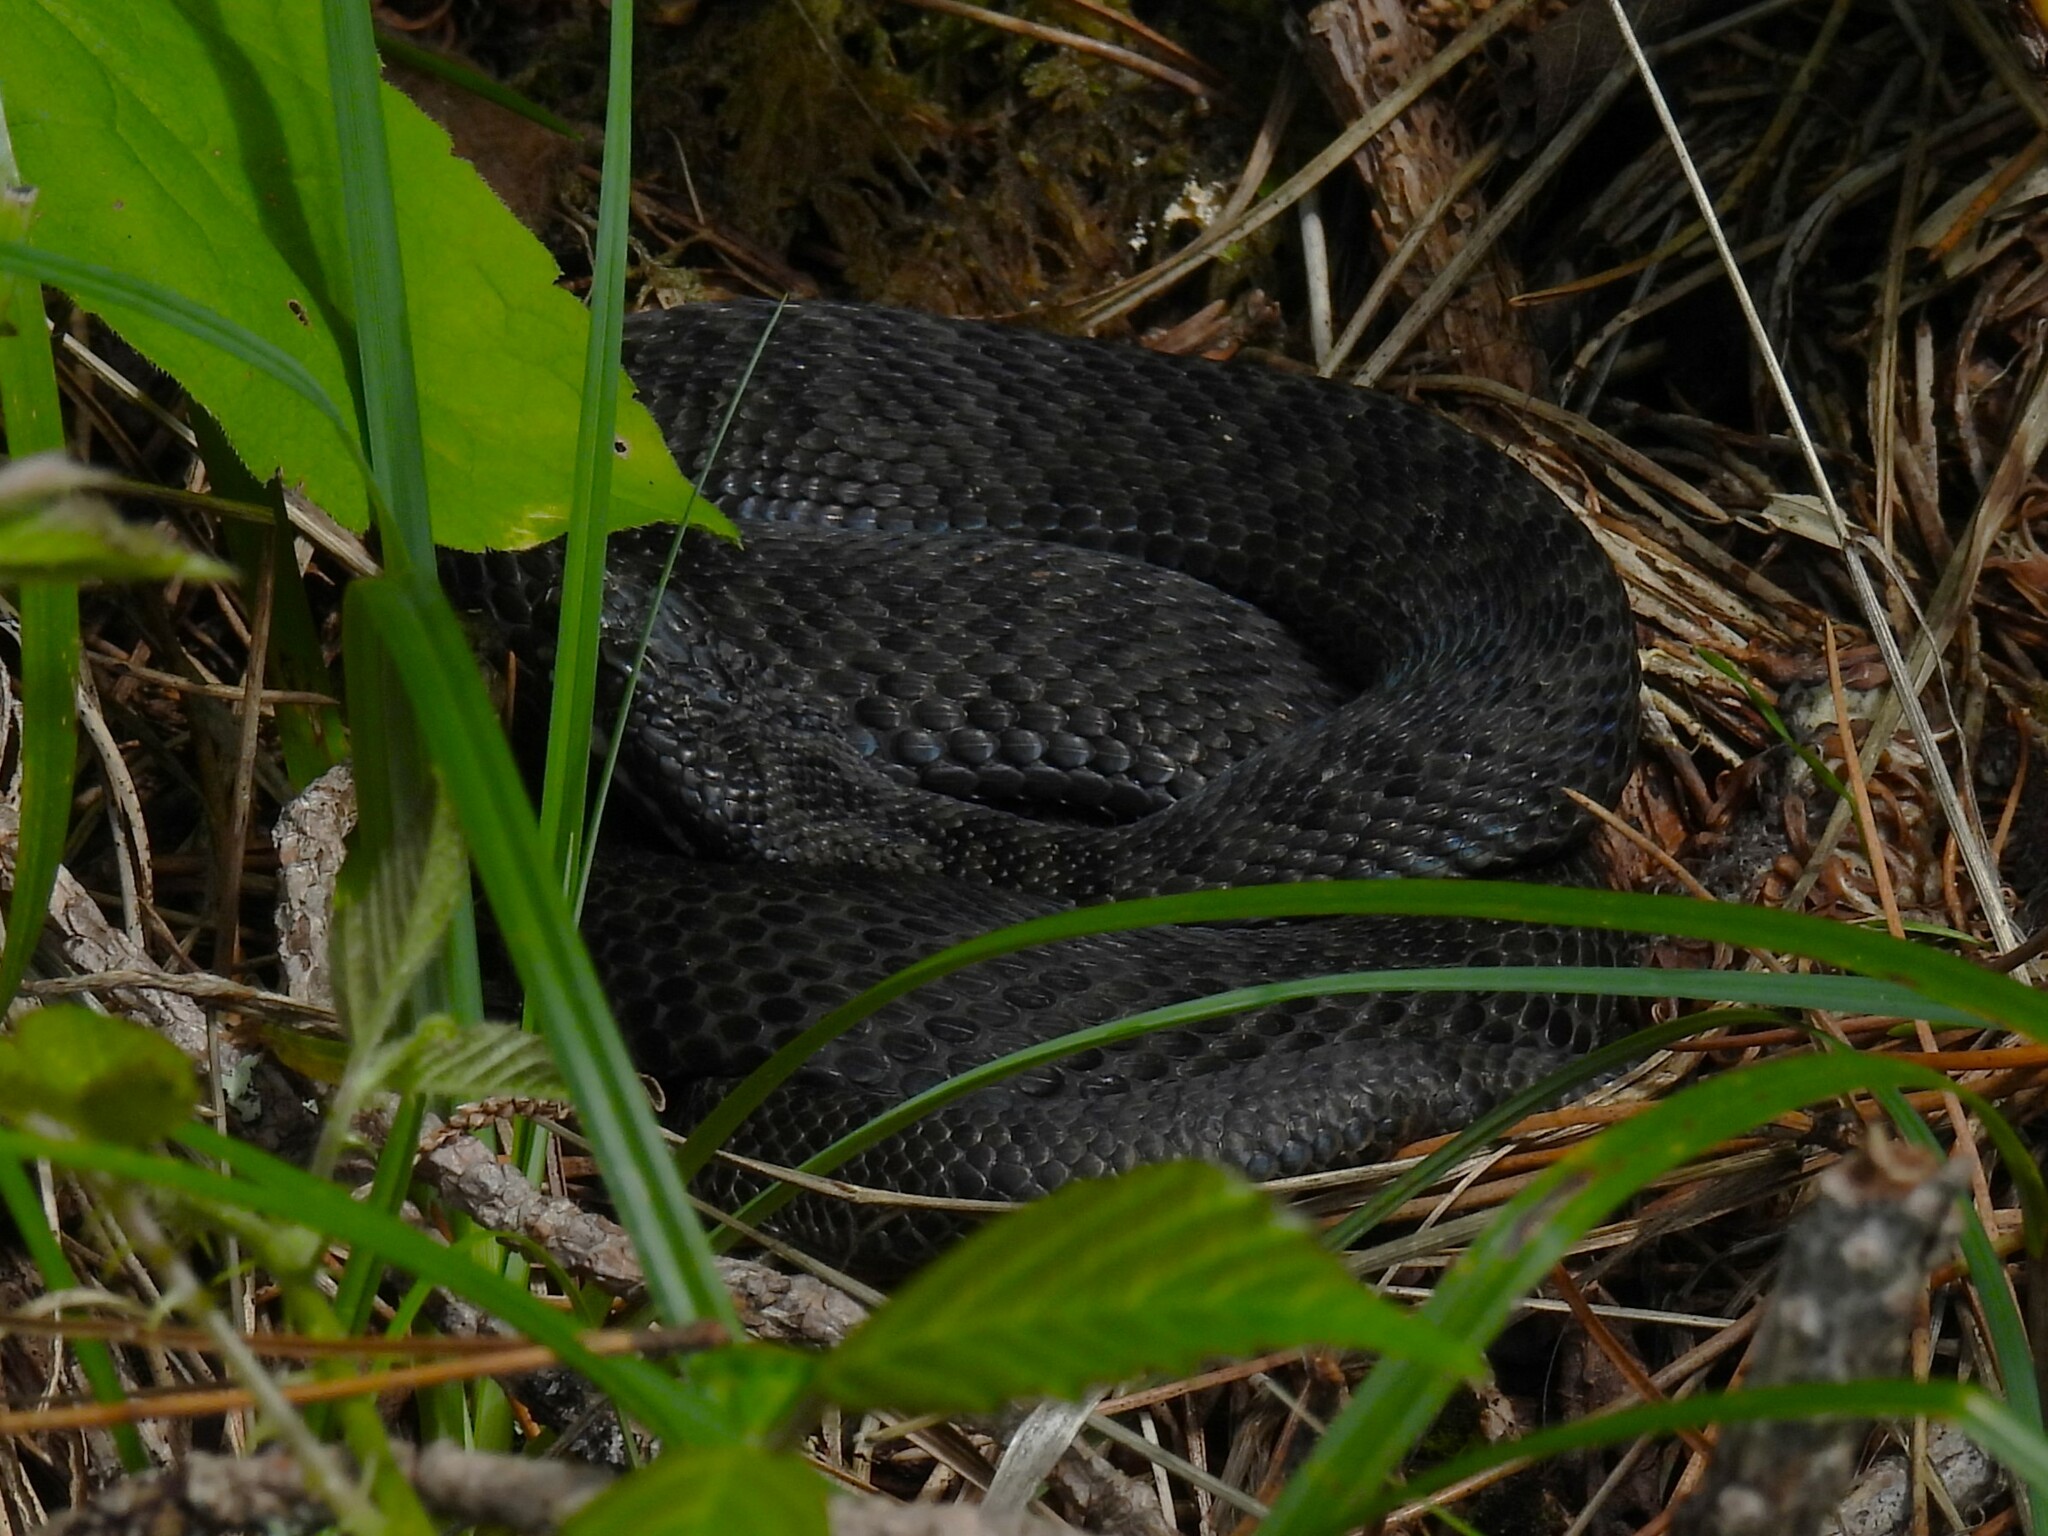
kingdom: Animalia
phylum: Chordata
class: Squamata
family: Viperidae
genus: Vipera
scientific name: Vipera berus
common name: Adder
